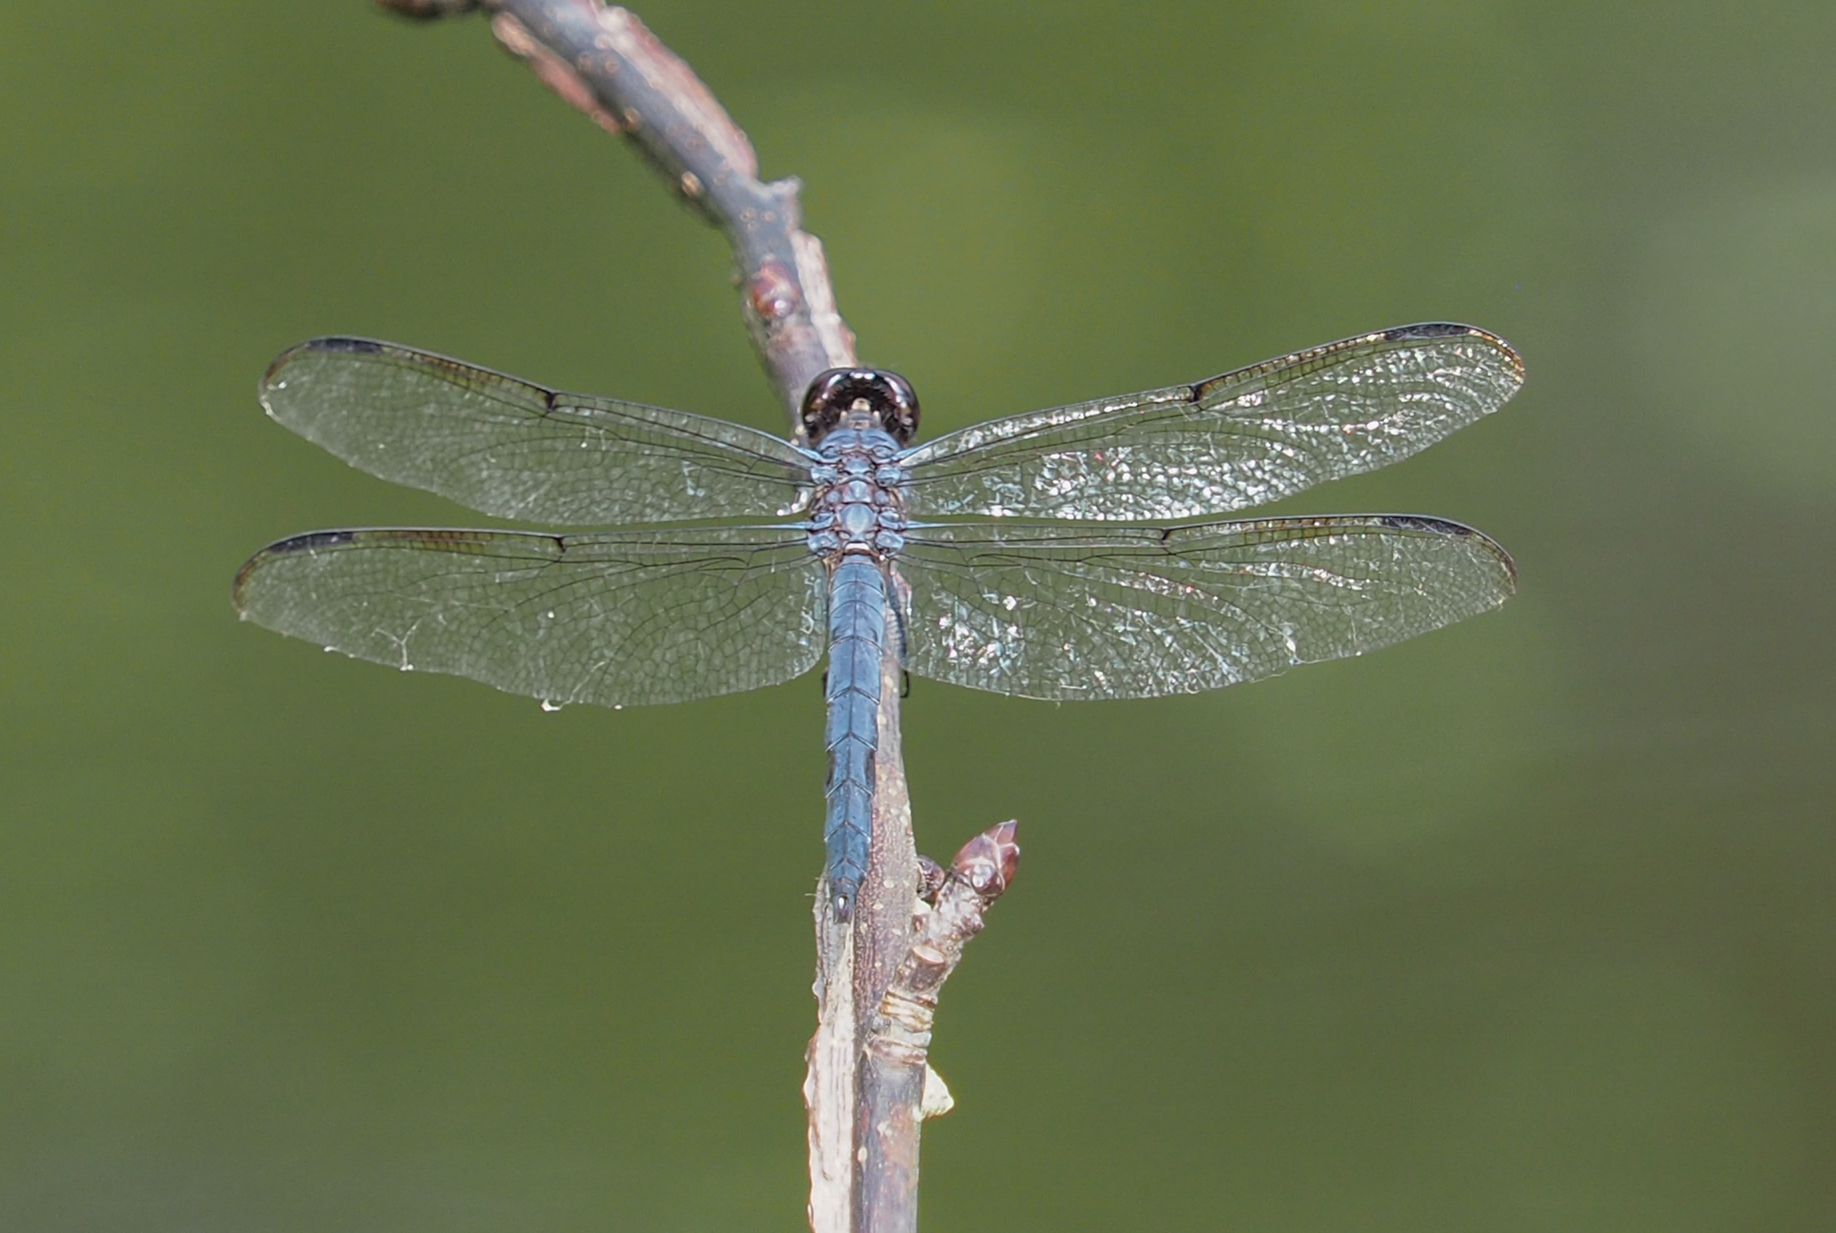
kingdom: Animalia
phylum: Arthropoda
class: Insecta
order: Odonata
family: Libellulidae
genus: Libellula
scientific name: Libellula incesta
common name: Slaty skimmer
